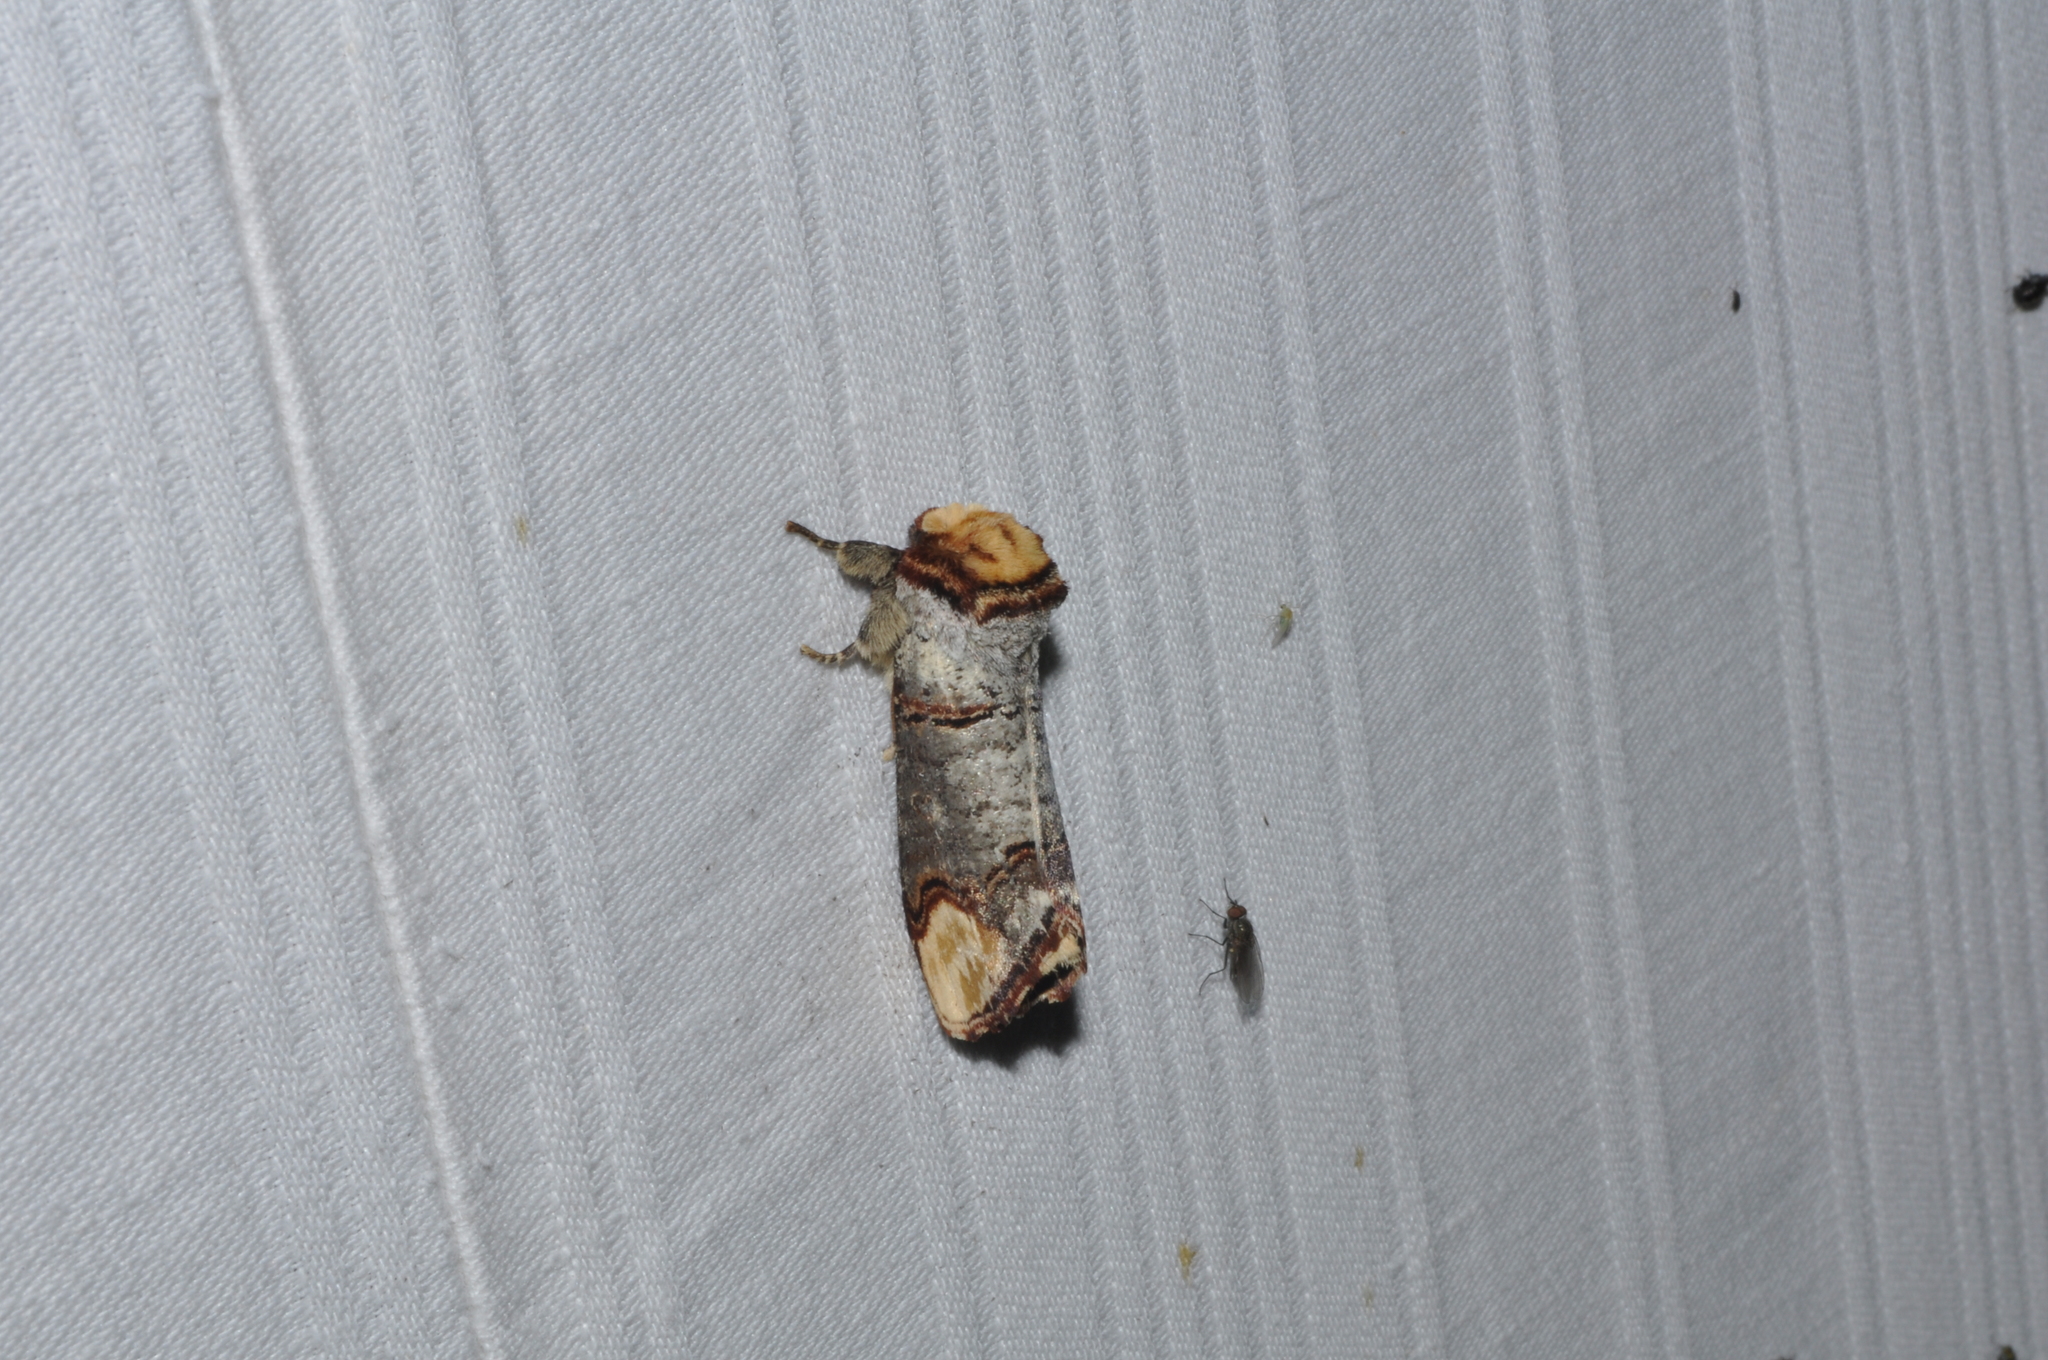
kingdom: Animalia
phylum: Arthropoda
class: Insecta
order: Lepidoptera
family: Notodontidae
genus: Phalera
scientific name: Phalera bucephala
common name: Buff-tip
